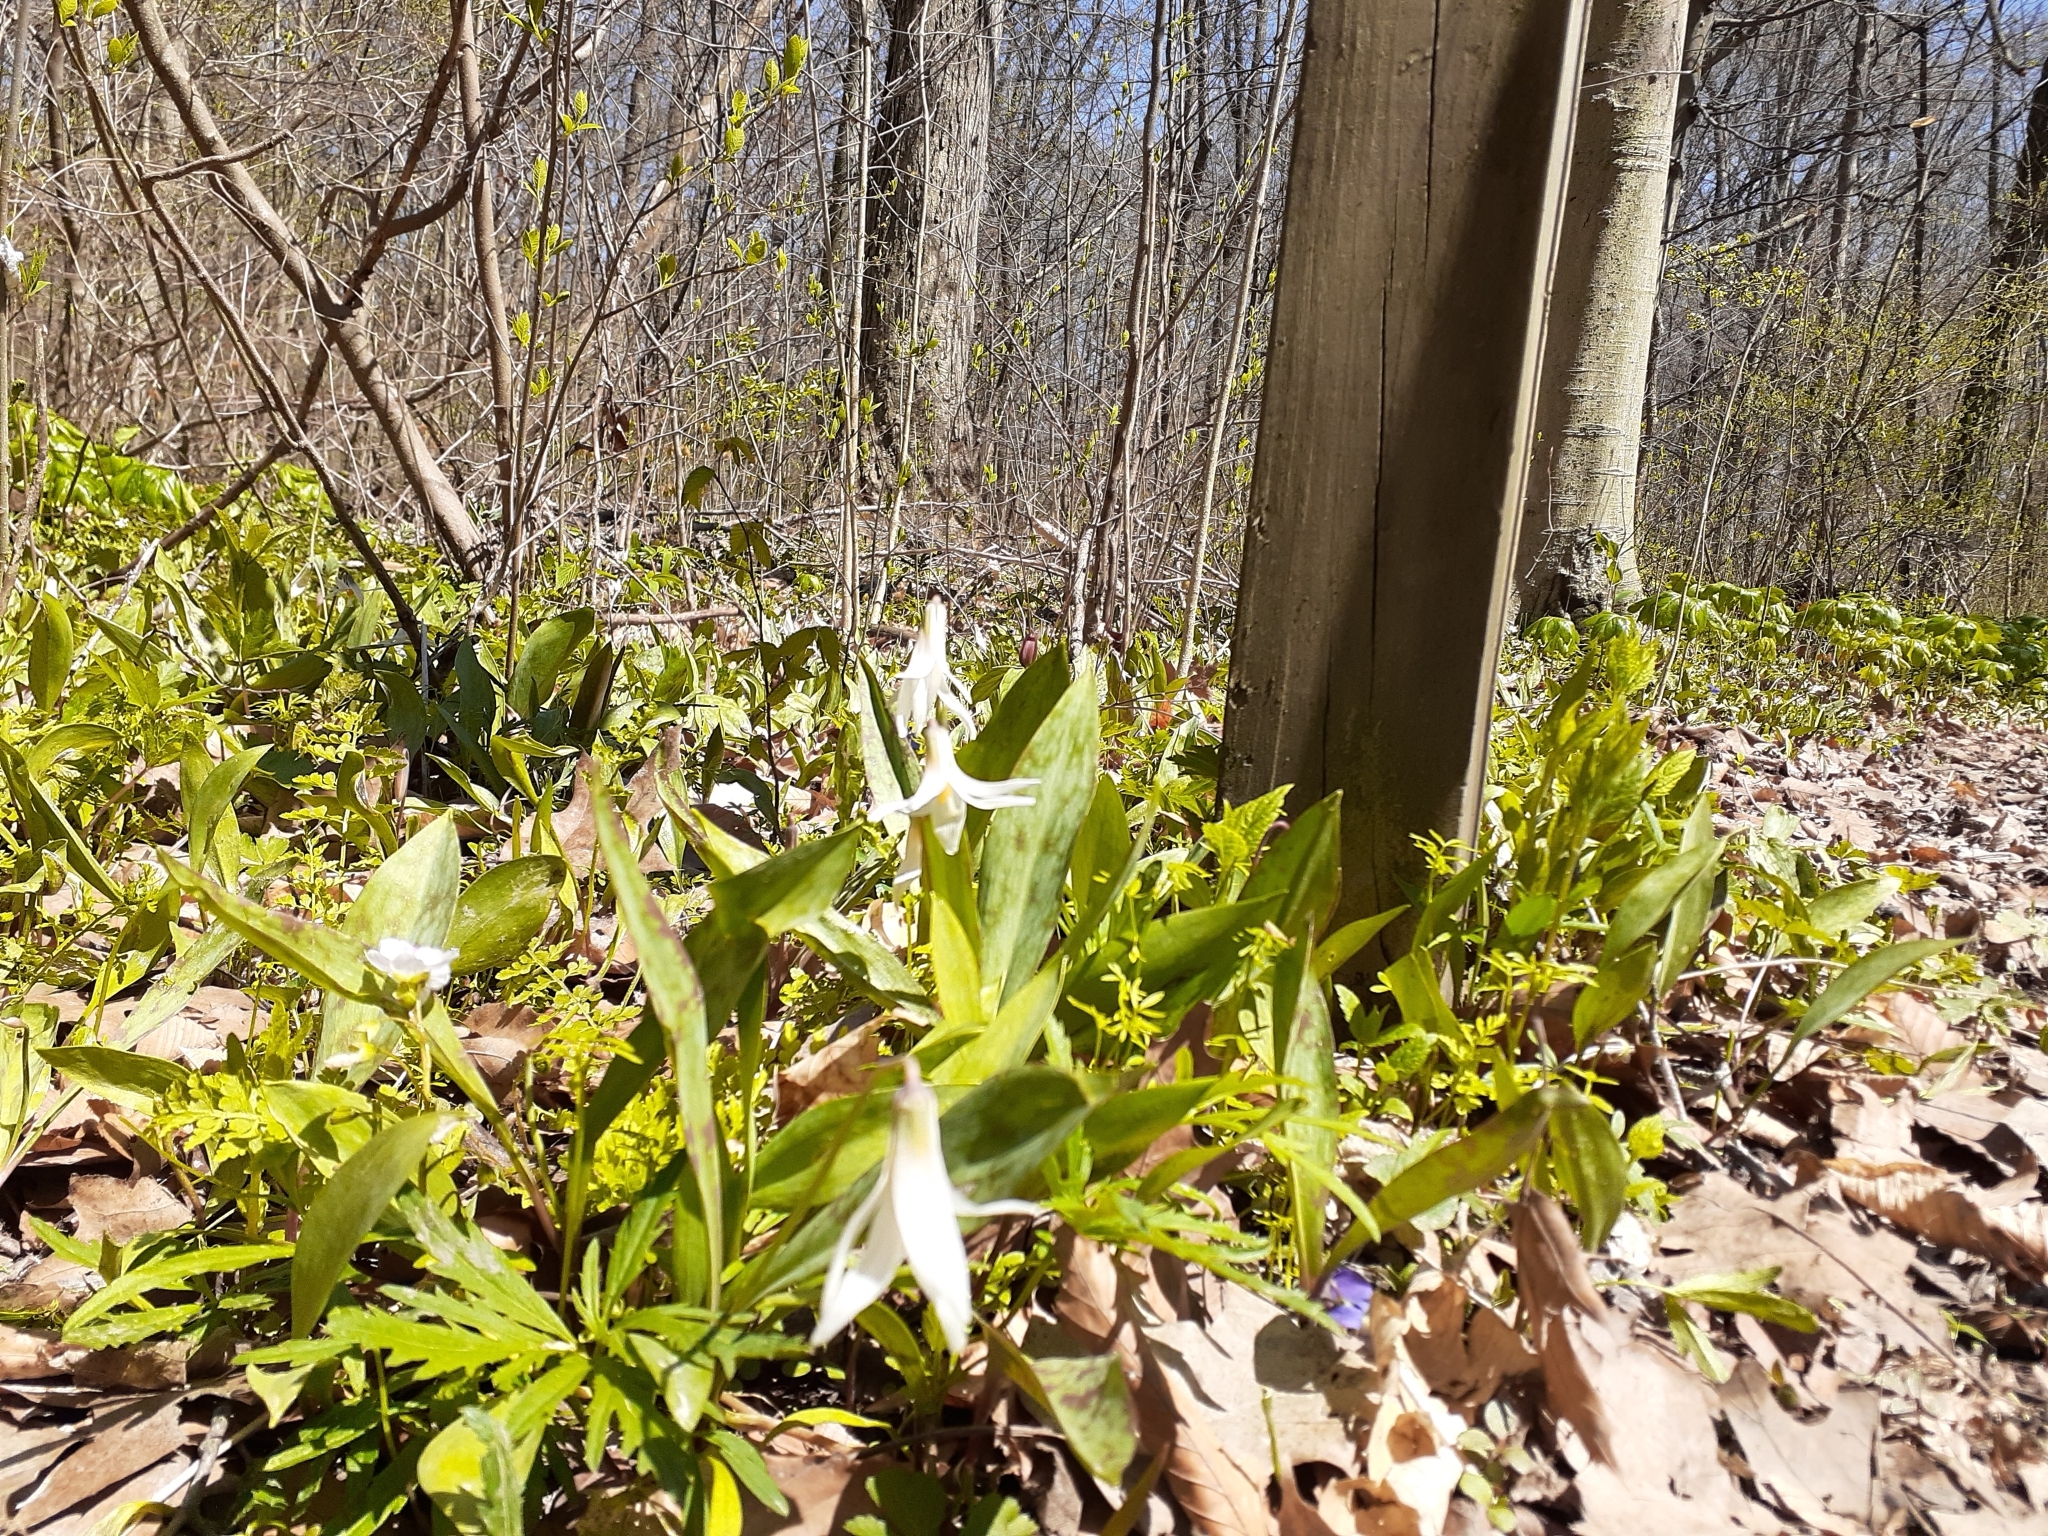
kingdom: Plantae
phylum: Tracheophyta
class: Liliopsida
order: Liliales
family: Liliaceae
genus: Erythronium
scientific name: Erythronium albidum
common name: White trout-lily
